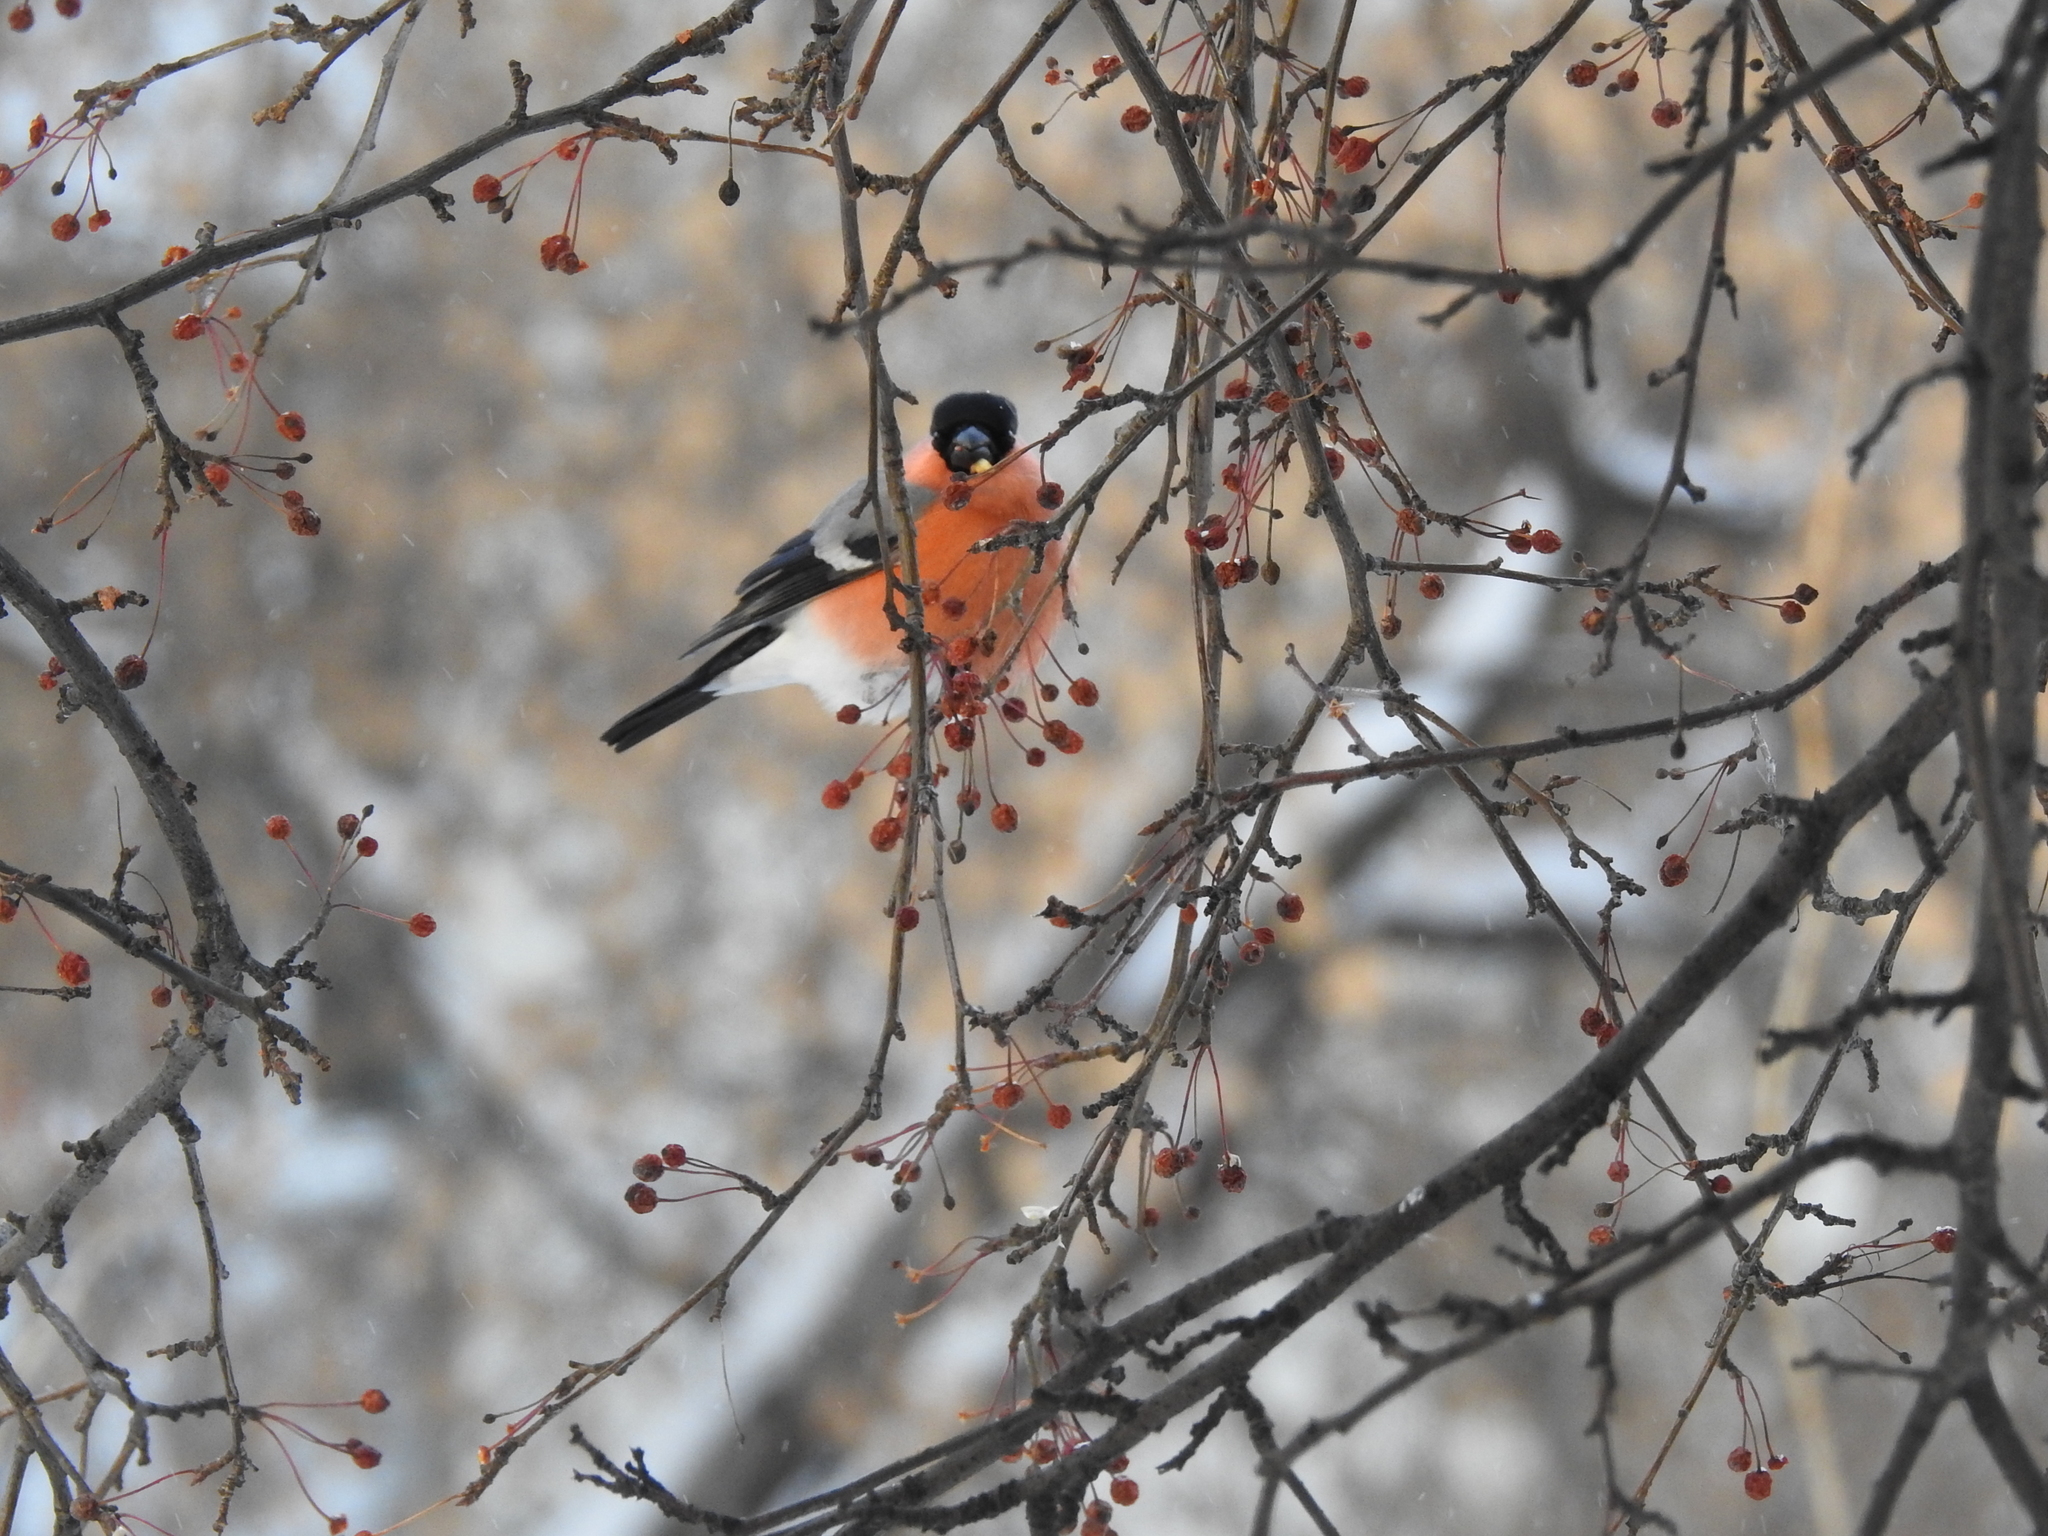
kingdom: Animalia
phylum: Chordata
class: Aves
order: Passeriformes
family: Fringillidae
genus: Pyrrhula
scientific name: Pyrrhula pyrrhula
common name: Eurasian bullfinch
